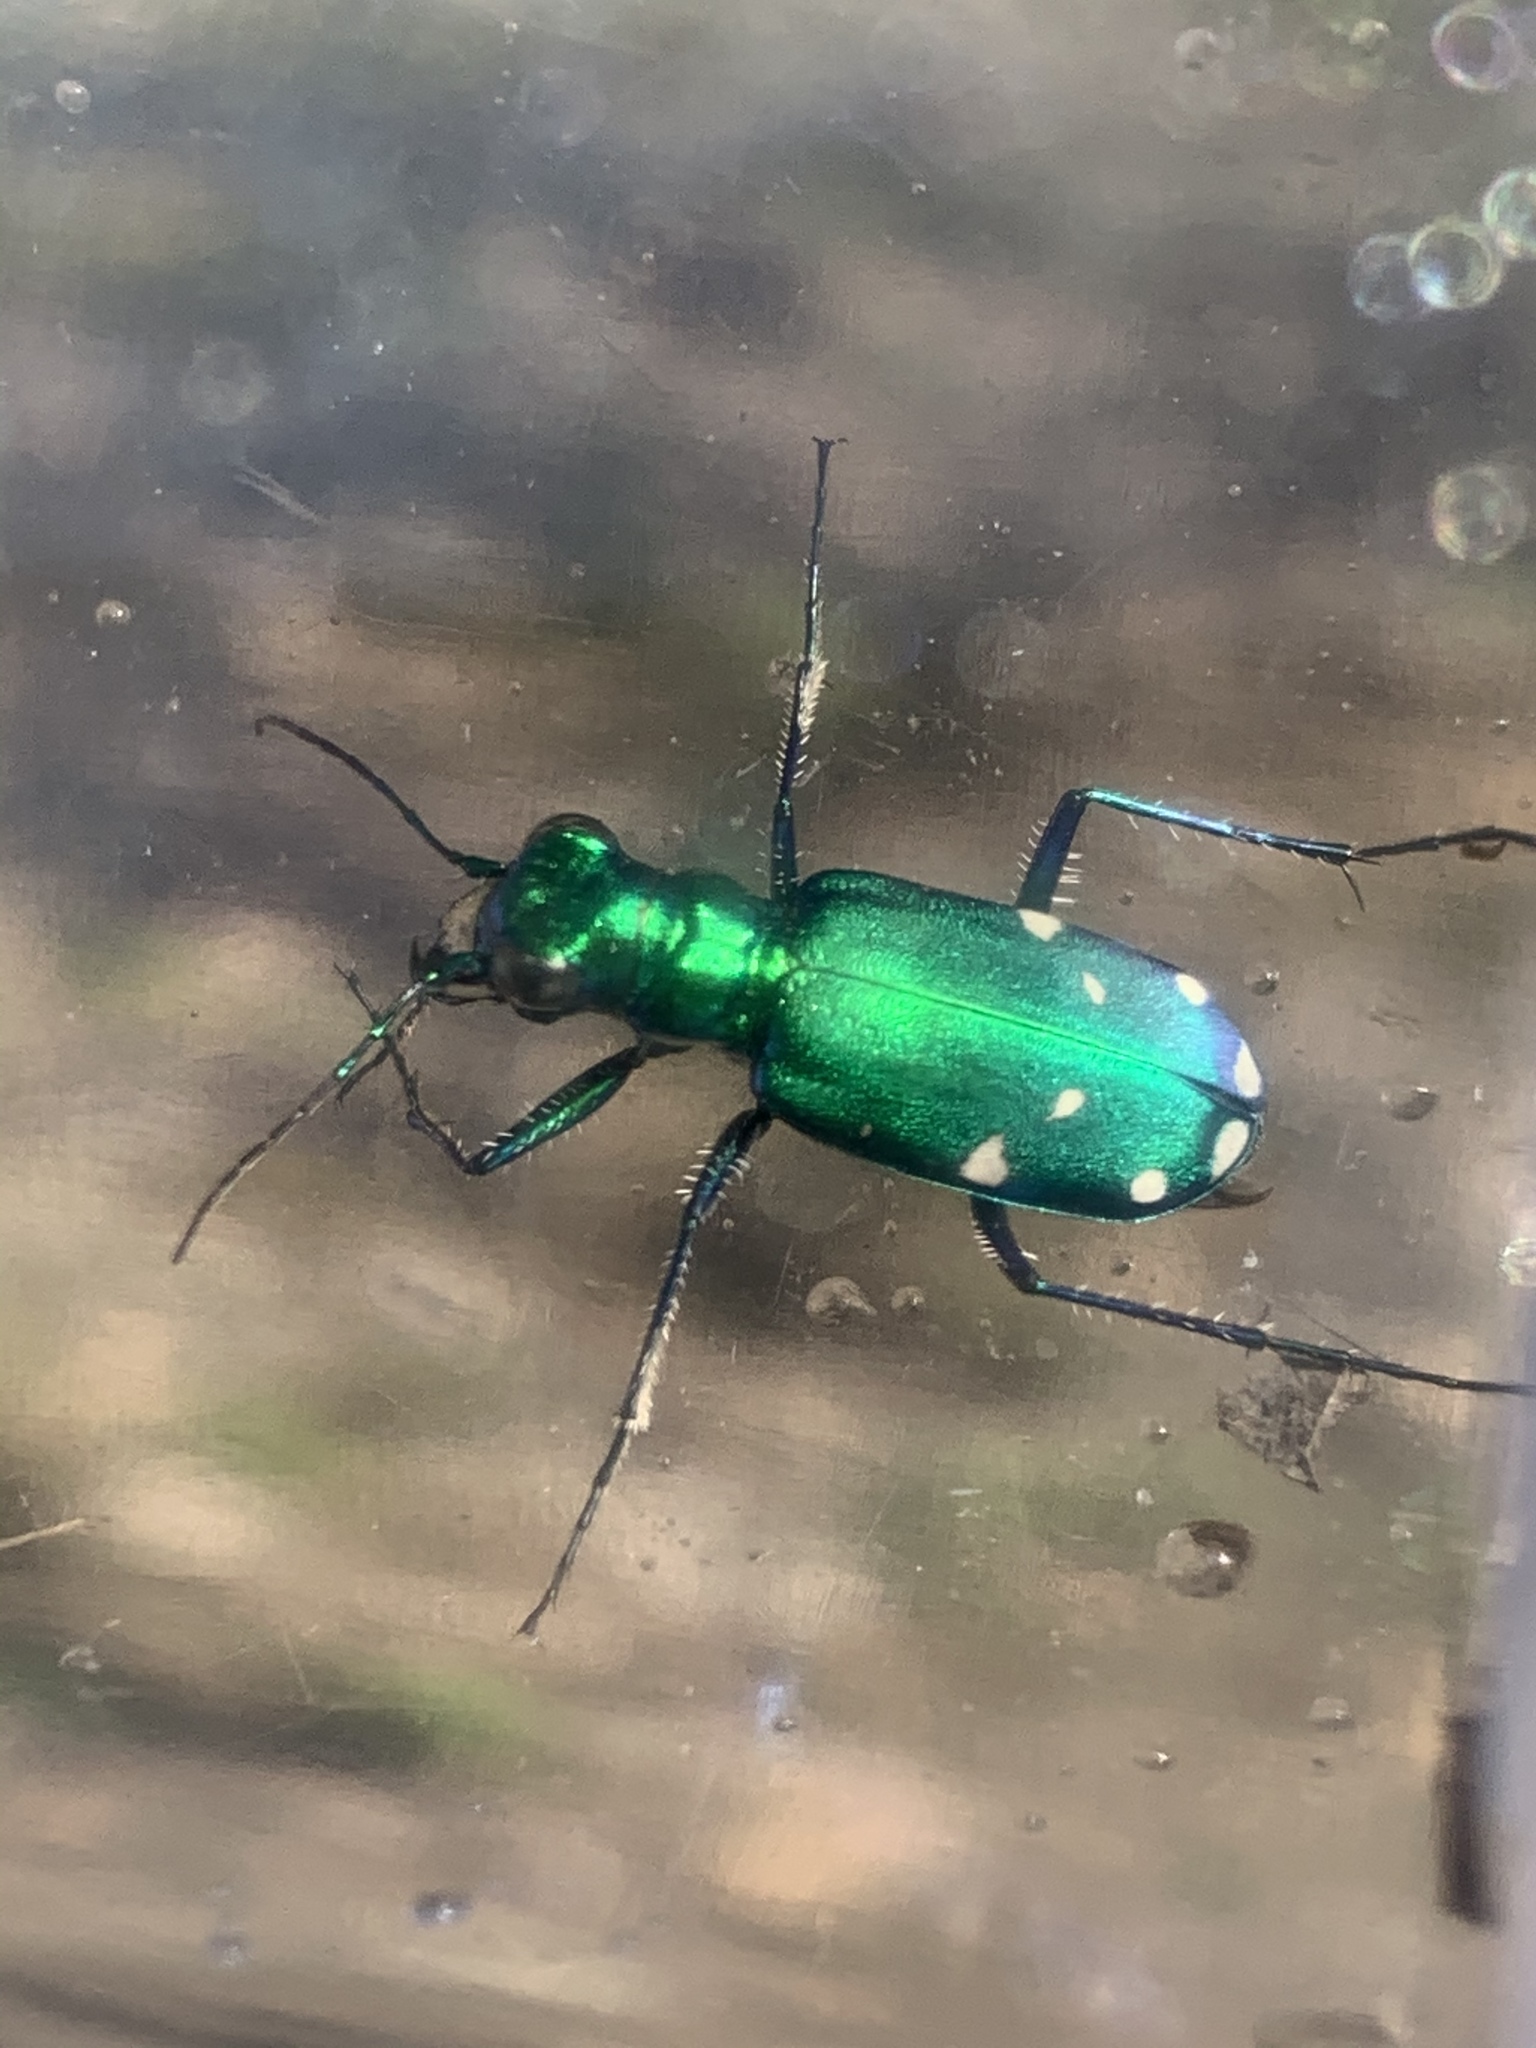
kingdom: Animalia
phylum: Arthropoda
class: Insecta
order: Coleoptera
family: Carabidae
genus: Cicindela
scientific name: Cicindela sexguttata
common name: Six-spotted tiger beetle
